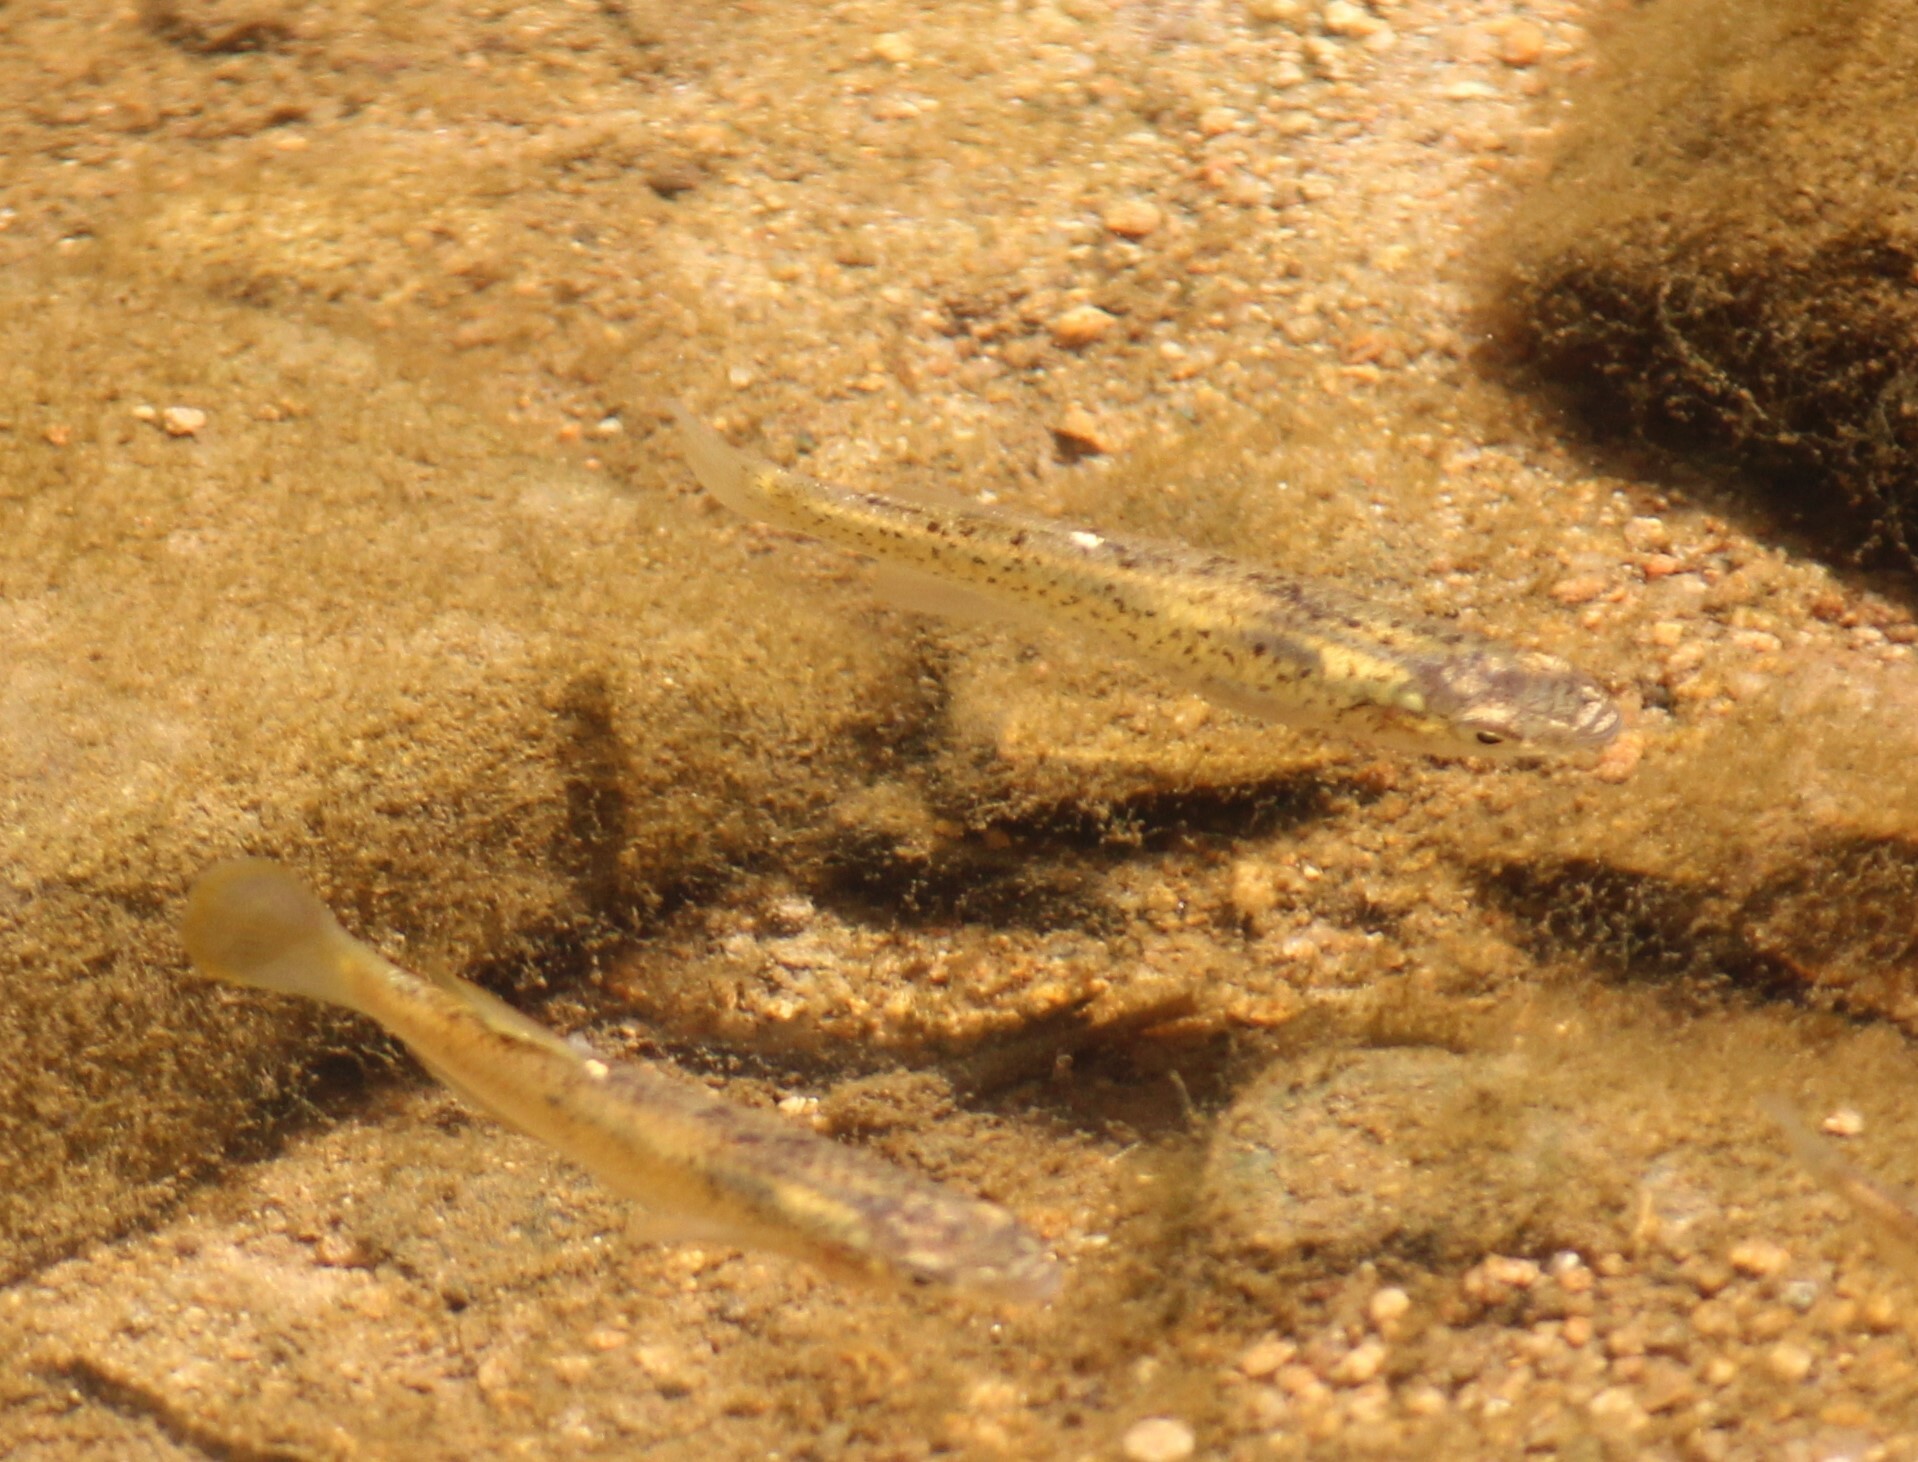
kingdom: Animalia
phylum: Chordata
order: Cyprinodontiformes
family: Fundulidae
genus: Fundulus
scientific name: Fundulus rathbuni
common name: Speckled killifish
